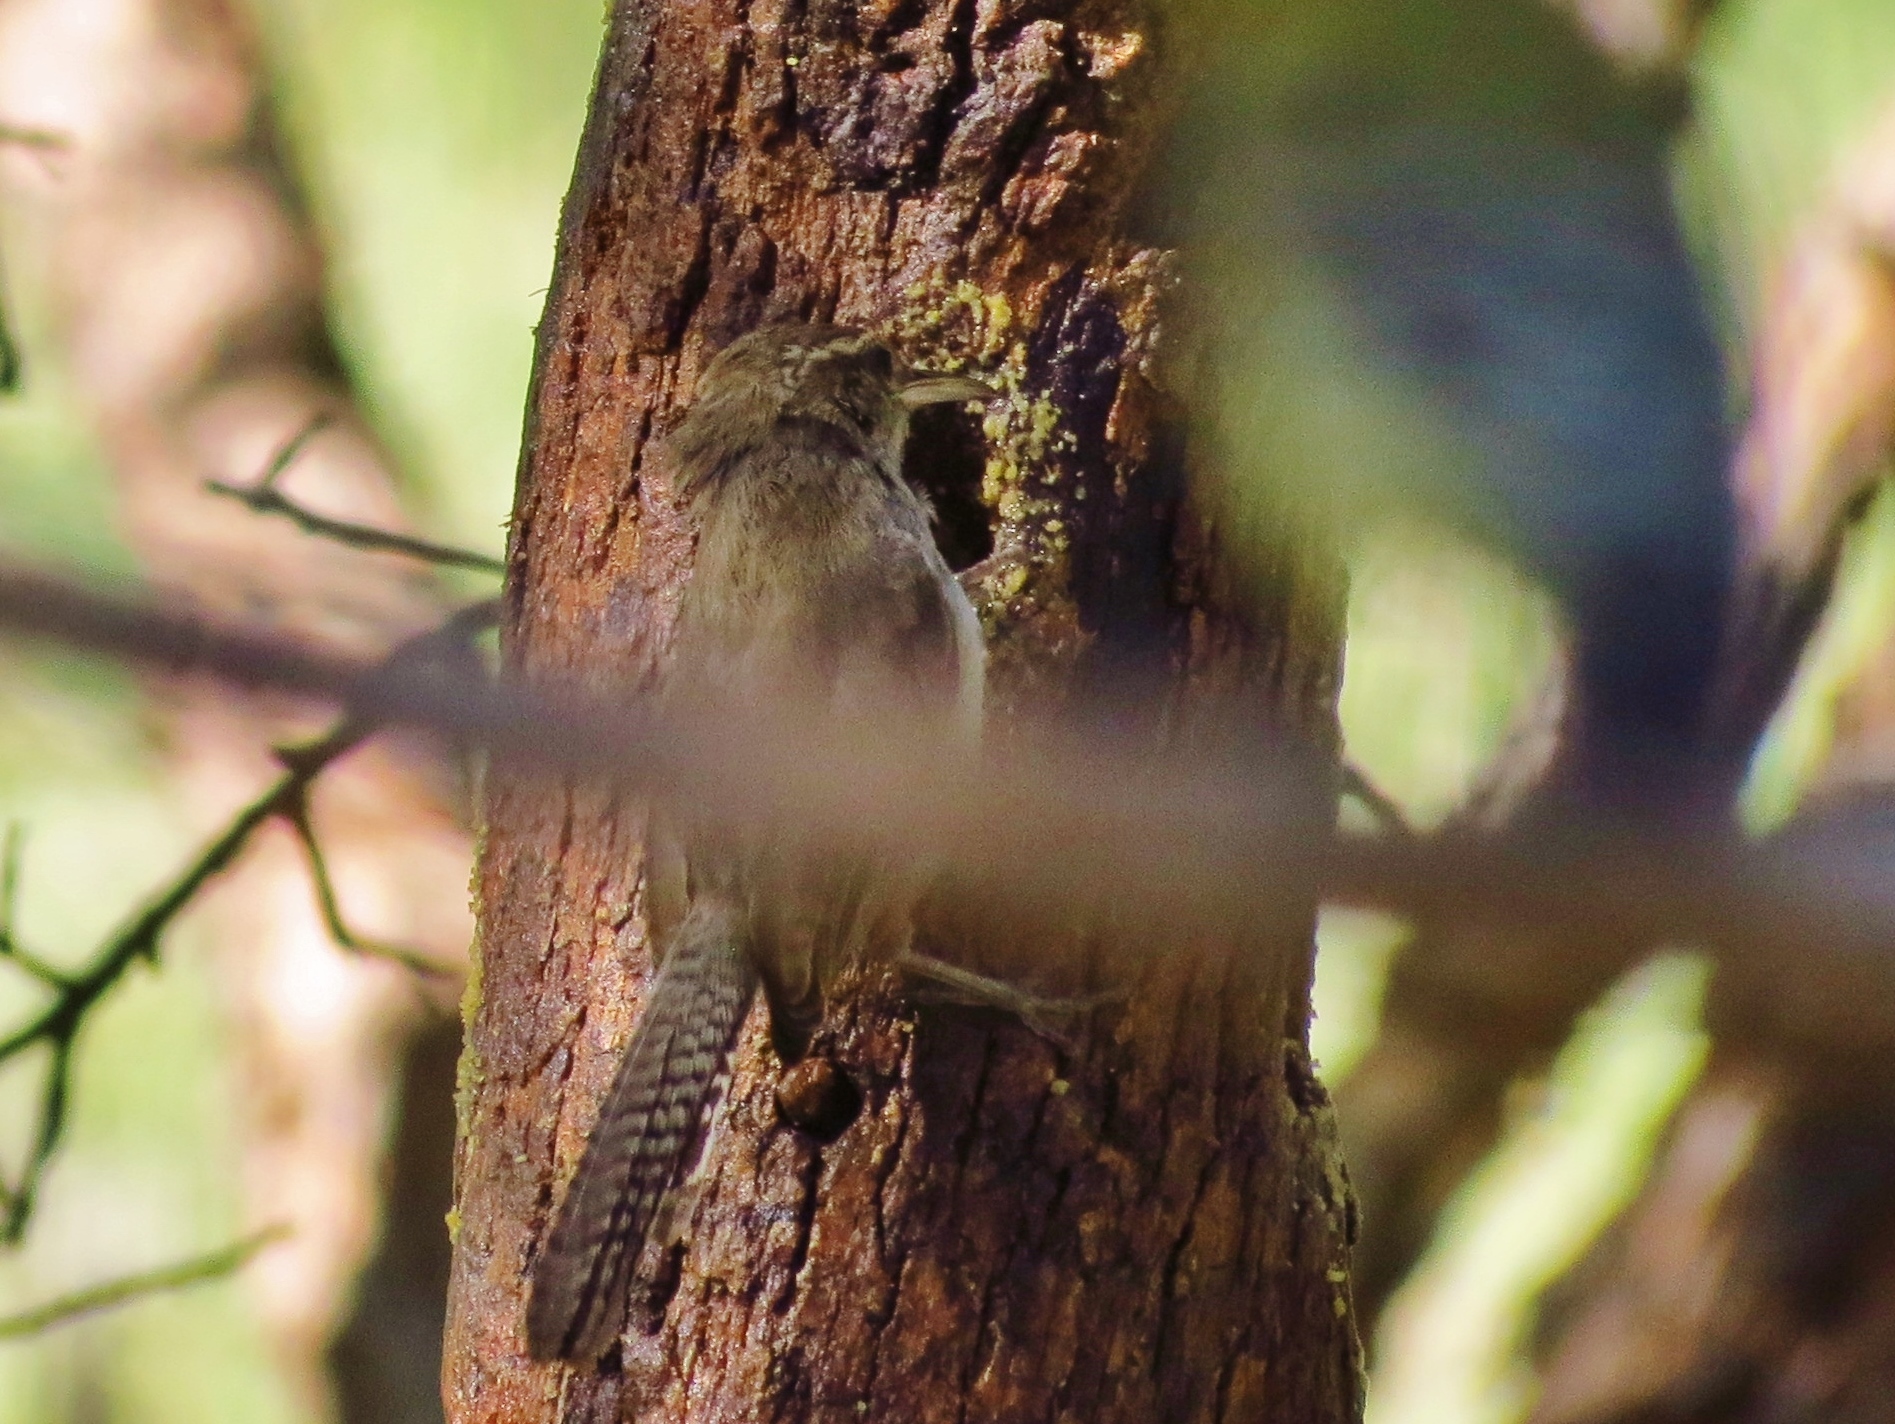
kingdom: Animalia
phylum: Chordata
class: Aves
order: Passeriformes
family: Troglodytidae
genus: Thryomanes
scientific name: Thryomanes bewickii
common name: Bewick's wren
